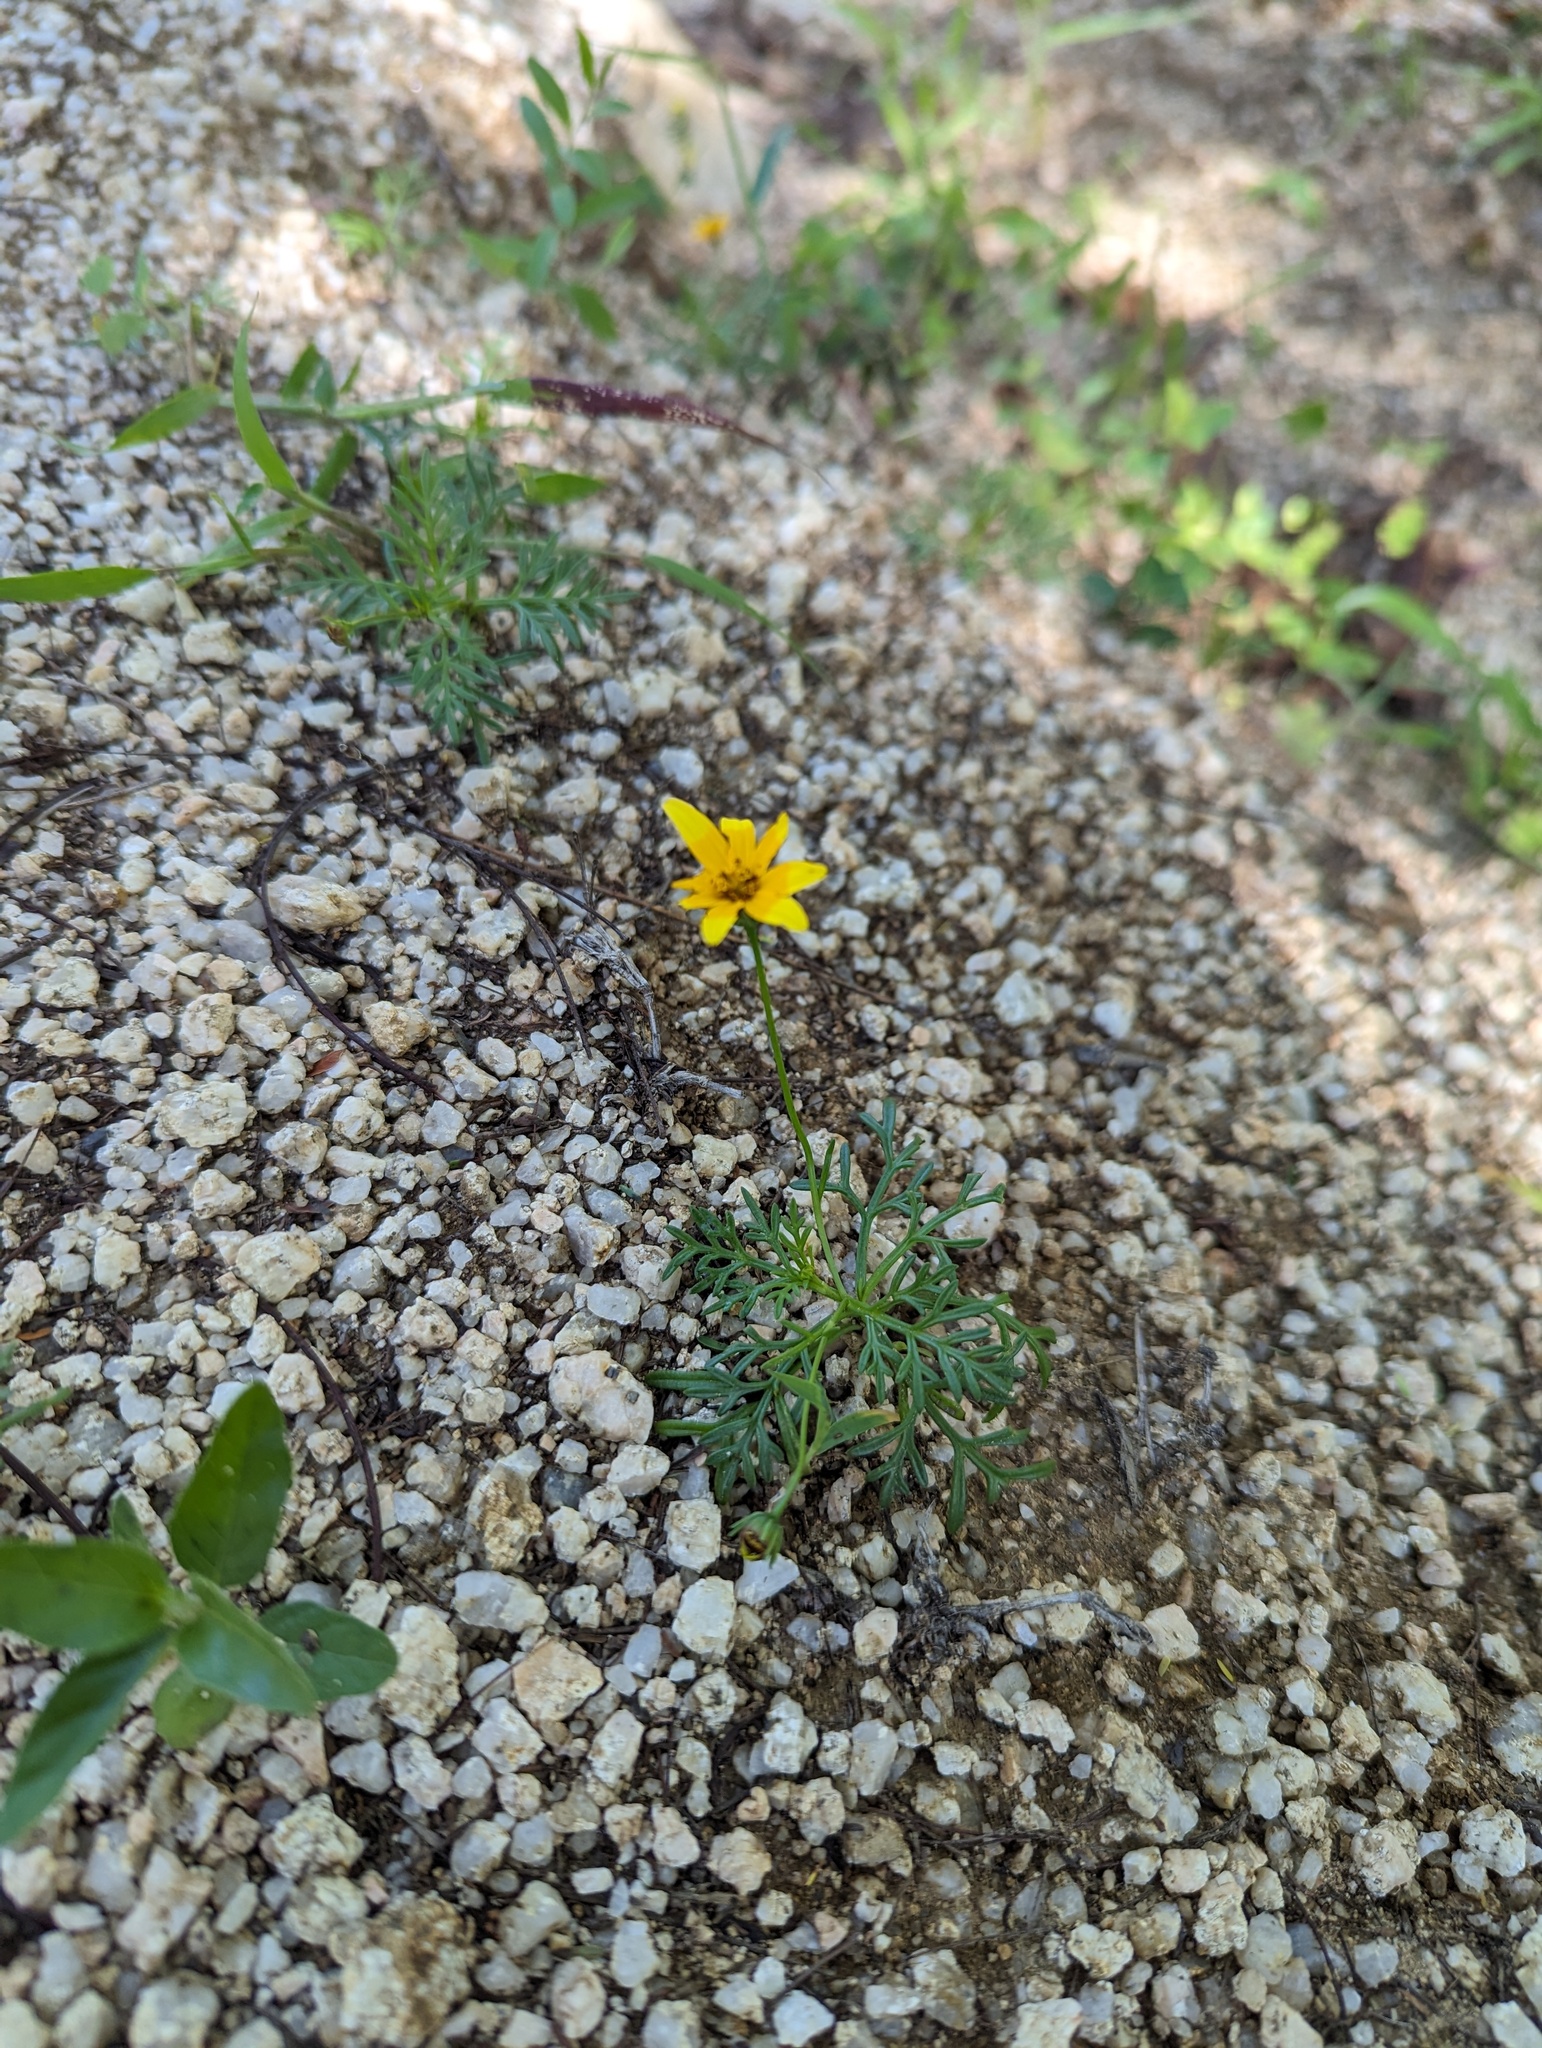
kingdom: Plantae
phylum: Tracheophyta
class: Magnoliopsida
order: Asterales
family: Asteraceae
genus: Bidens
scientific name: Bidens xanti
